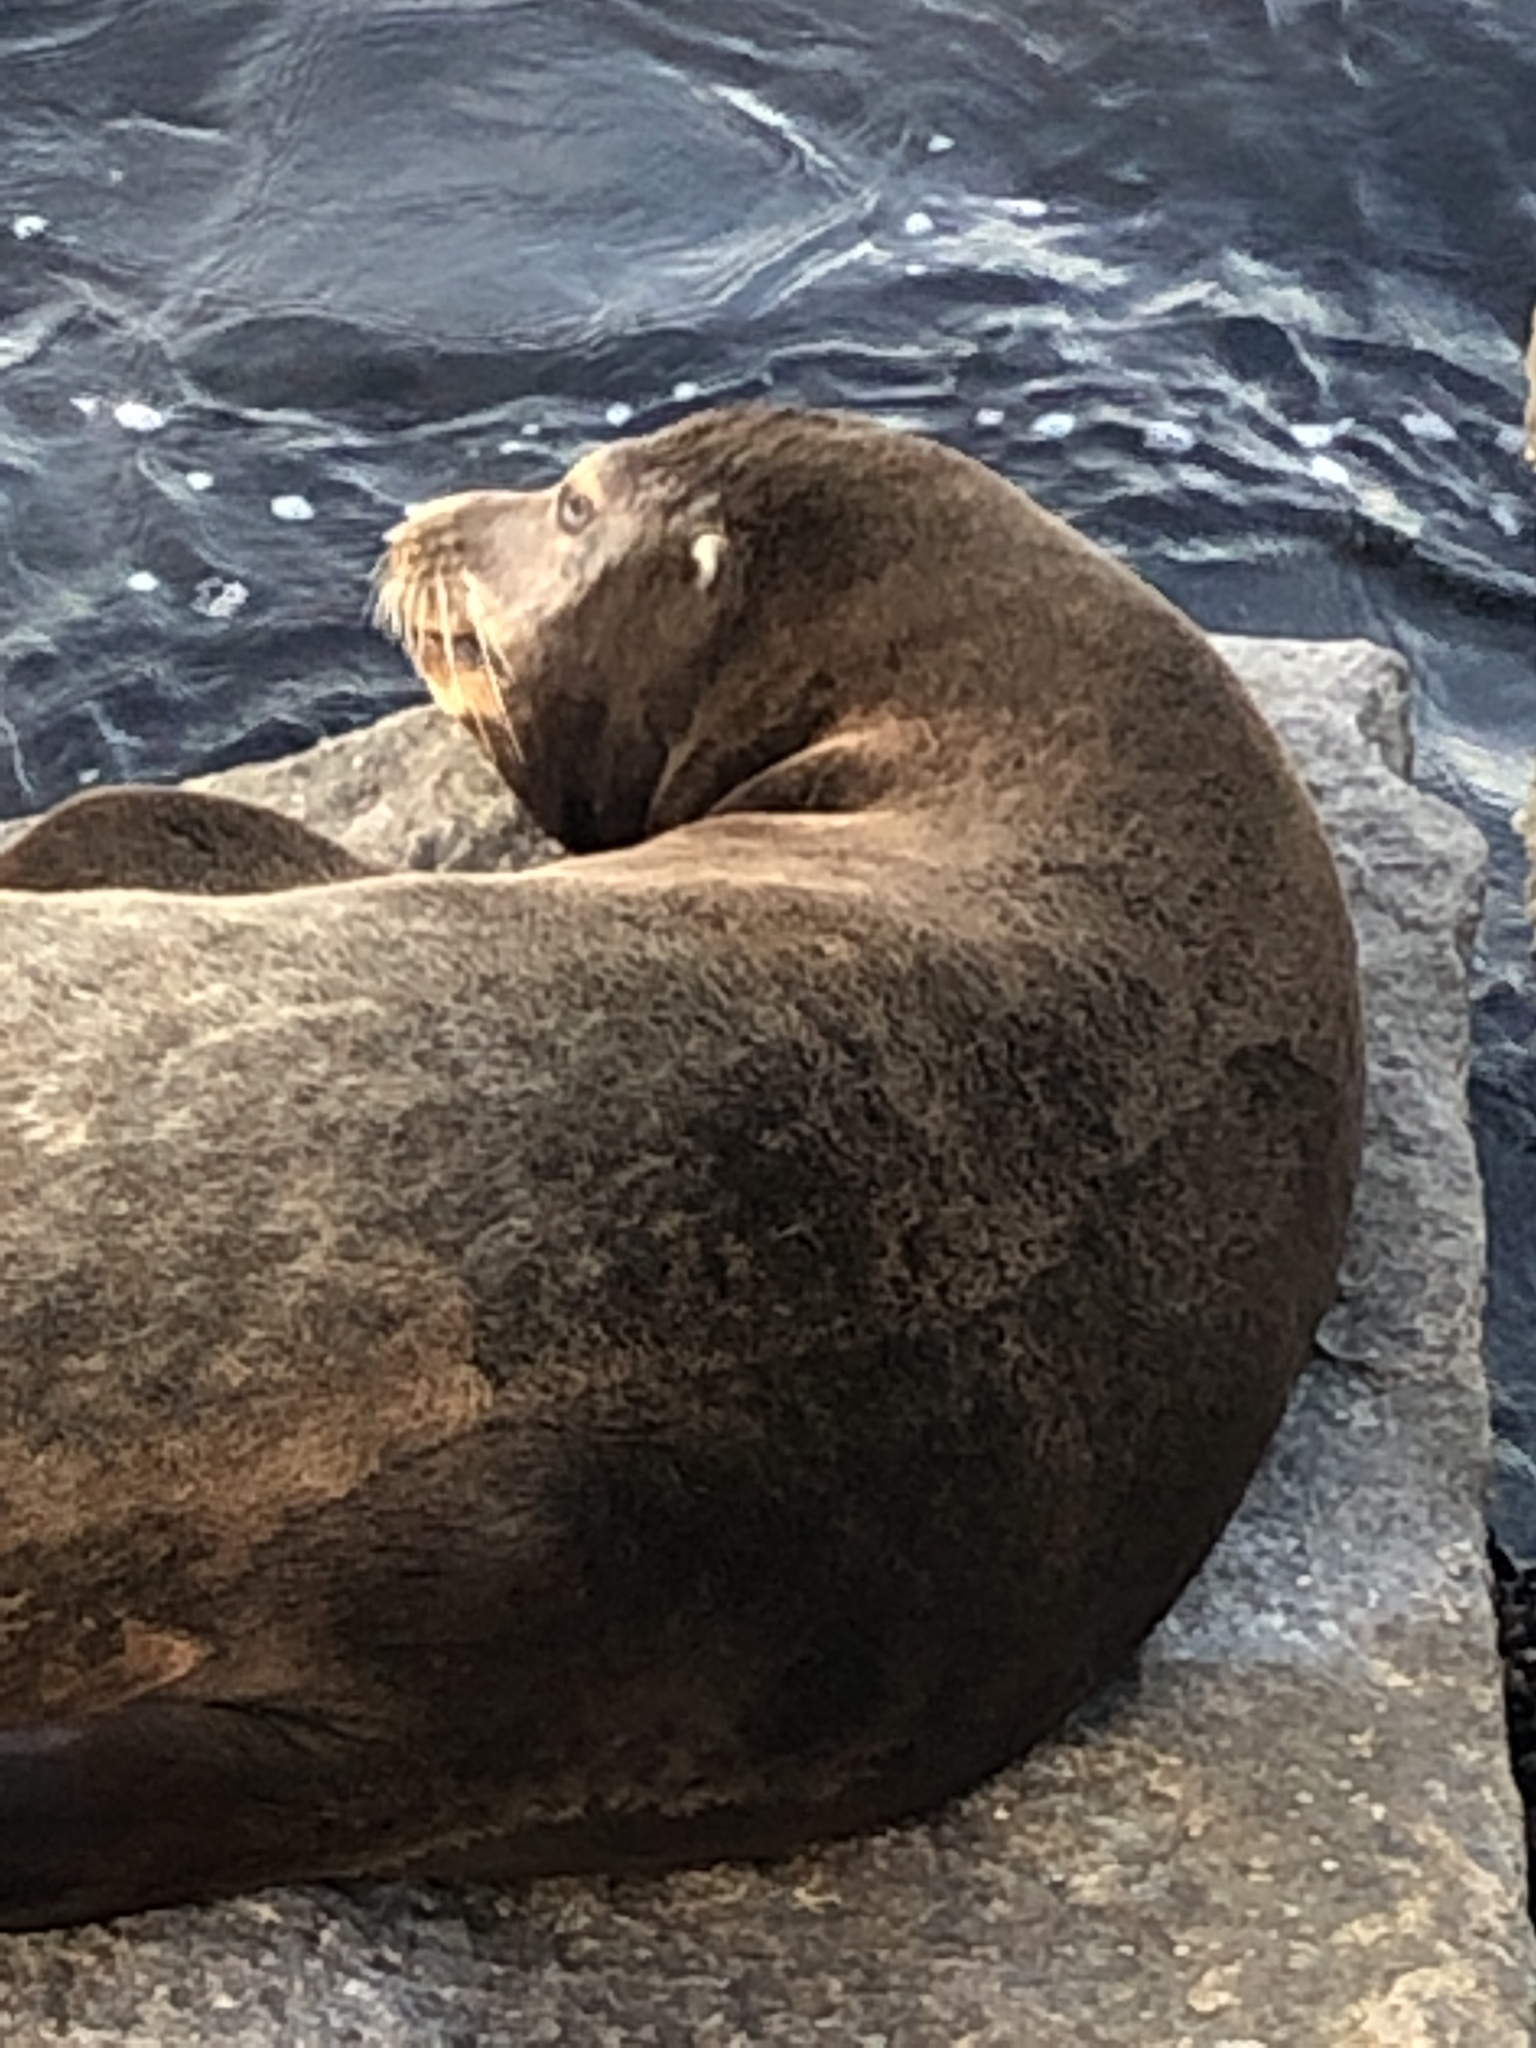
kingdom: Animalia
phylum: Chordata
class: Mammalia
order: Carnivora
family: Otariidae
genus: Zalophus
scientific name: Zalophus californianus
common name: California sea lion
